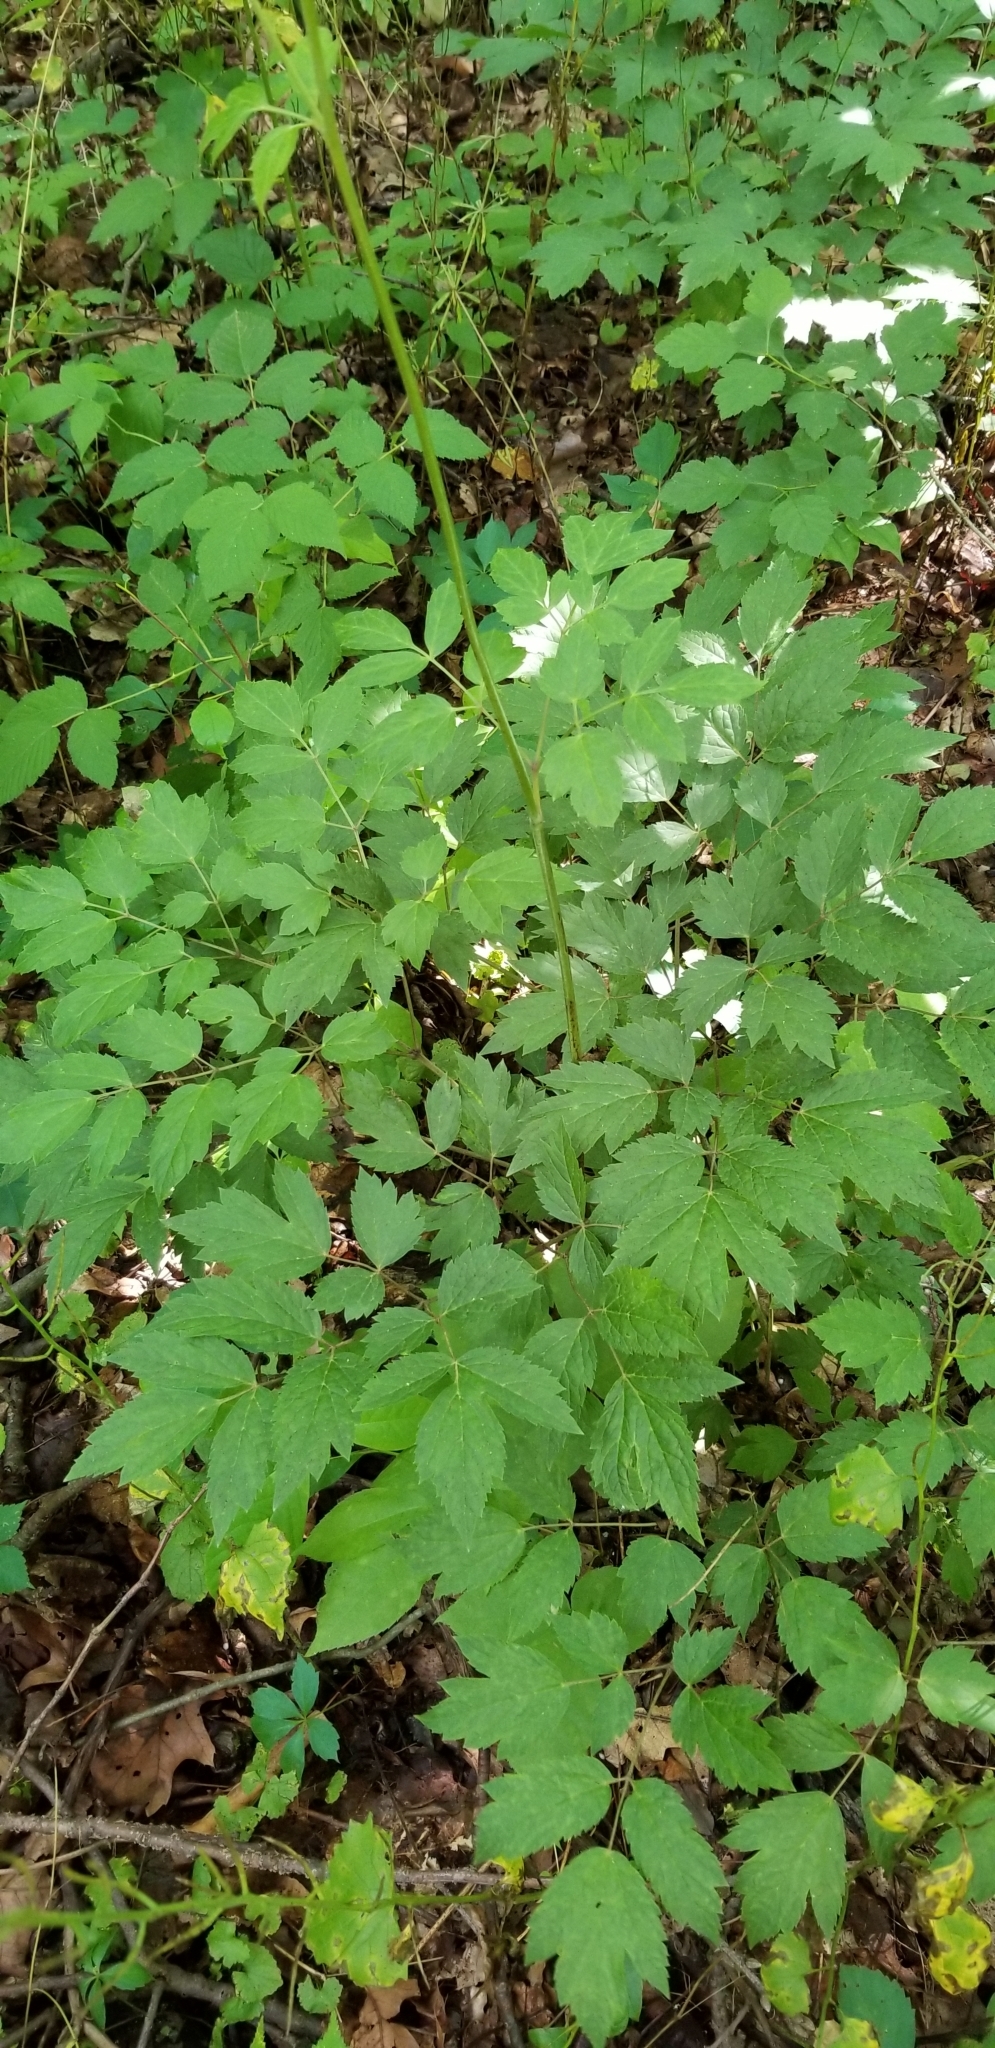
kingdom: Plantae
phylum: Tracheophyta
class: Magnoliopsida
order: Ranunculales
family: Ranunculaceae
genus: Actaea
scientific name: Actaea racemosa
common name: Black cohosh
